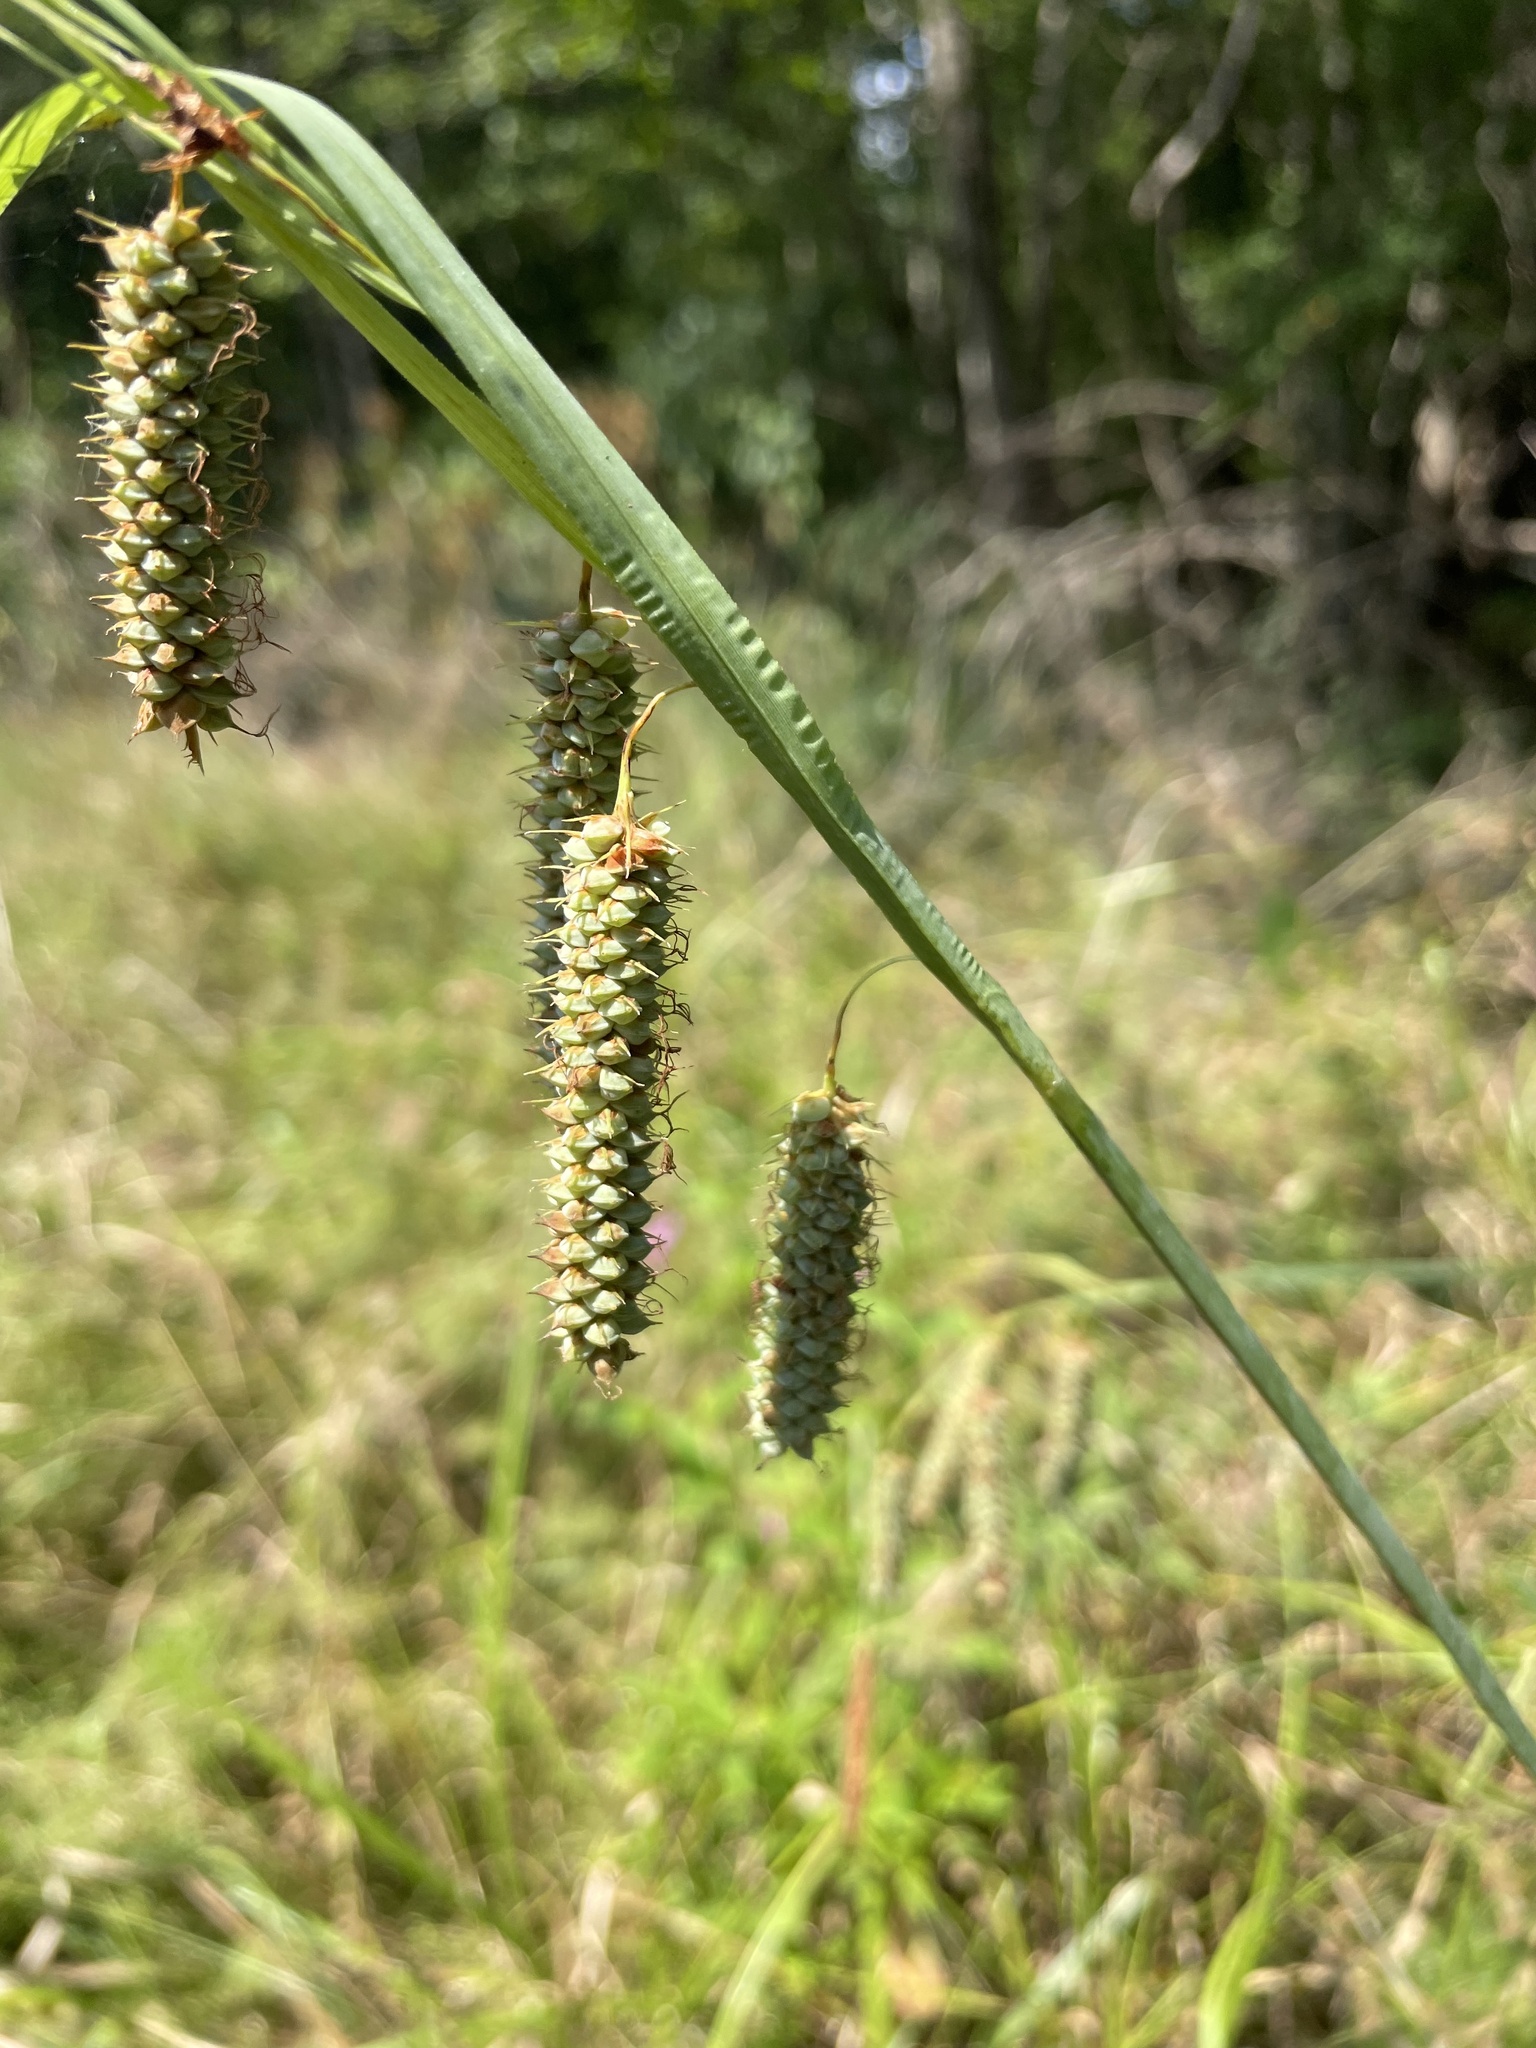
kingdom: Plantae
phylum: Tracheophyta
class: Liliopsida
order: Poales
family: Cyperaceae
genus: Carex
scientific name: Carex glaucescens
